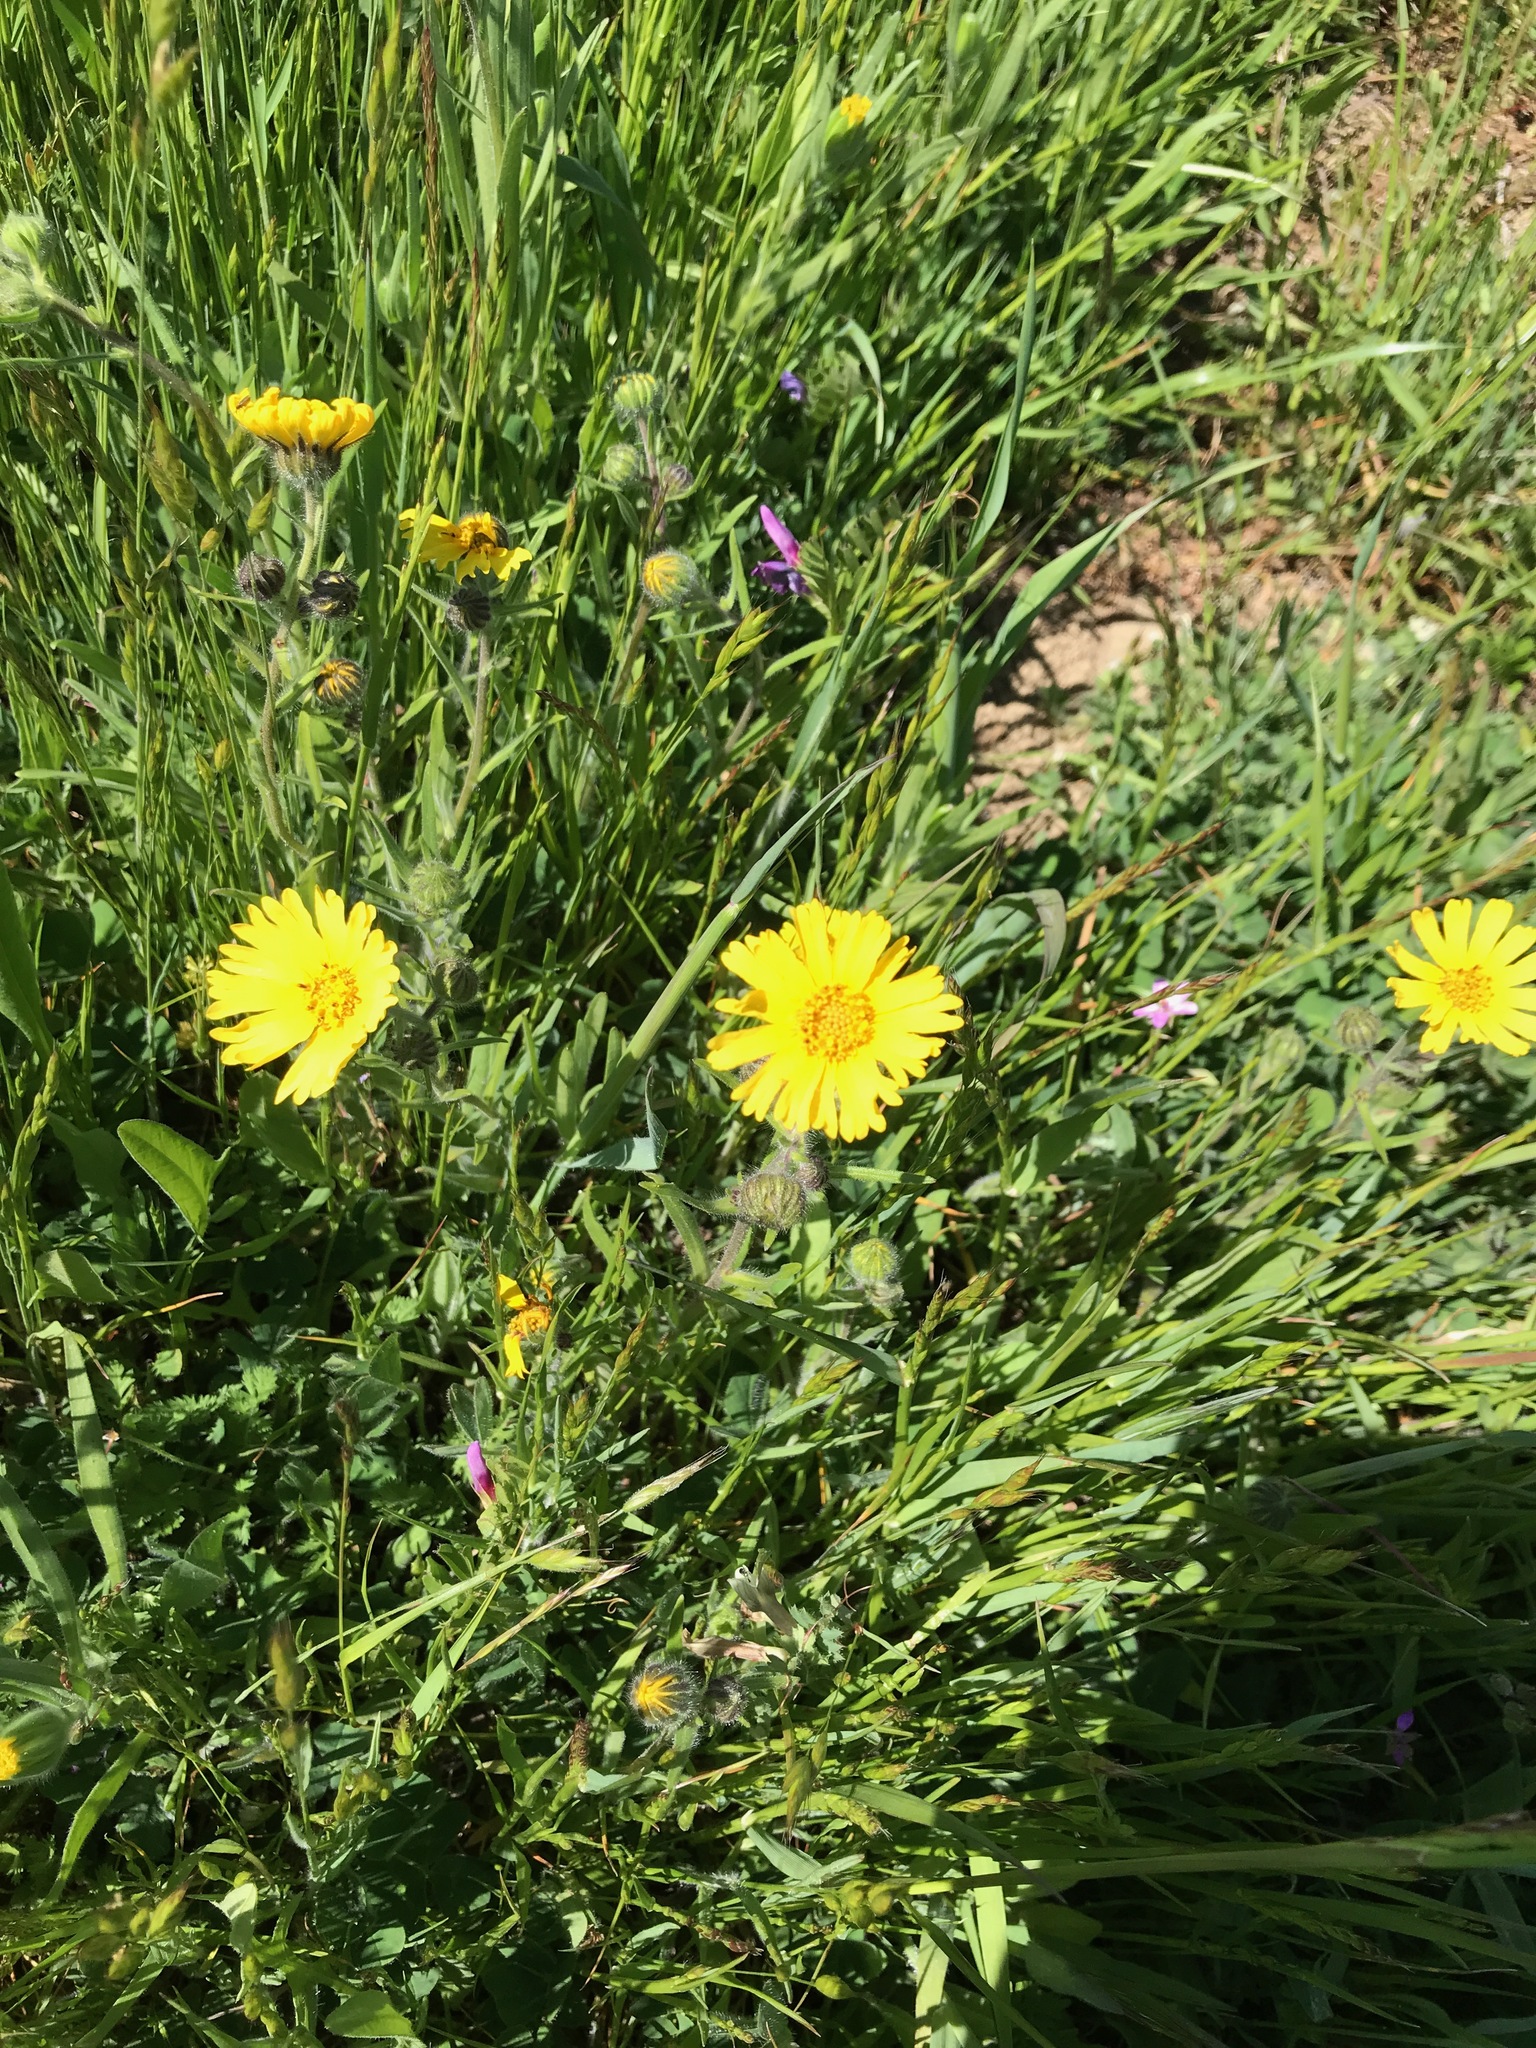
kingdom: Plantae
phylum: Tracheophyta
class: Magnoliopsida
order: Asterales
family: Asteraceae
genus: Madia
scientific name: Madia elegans
